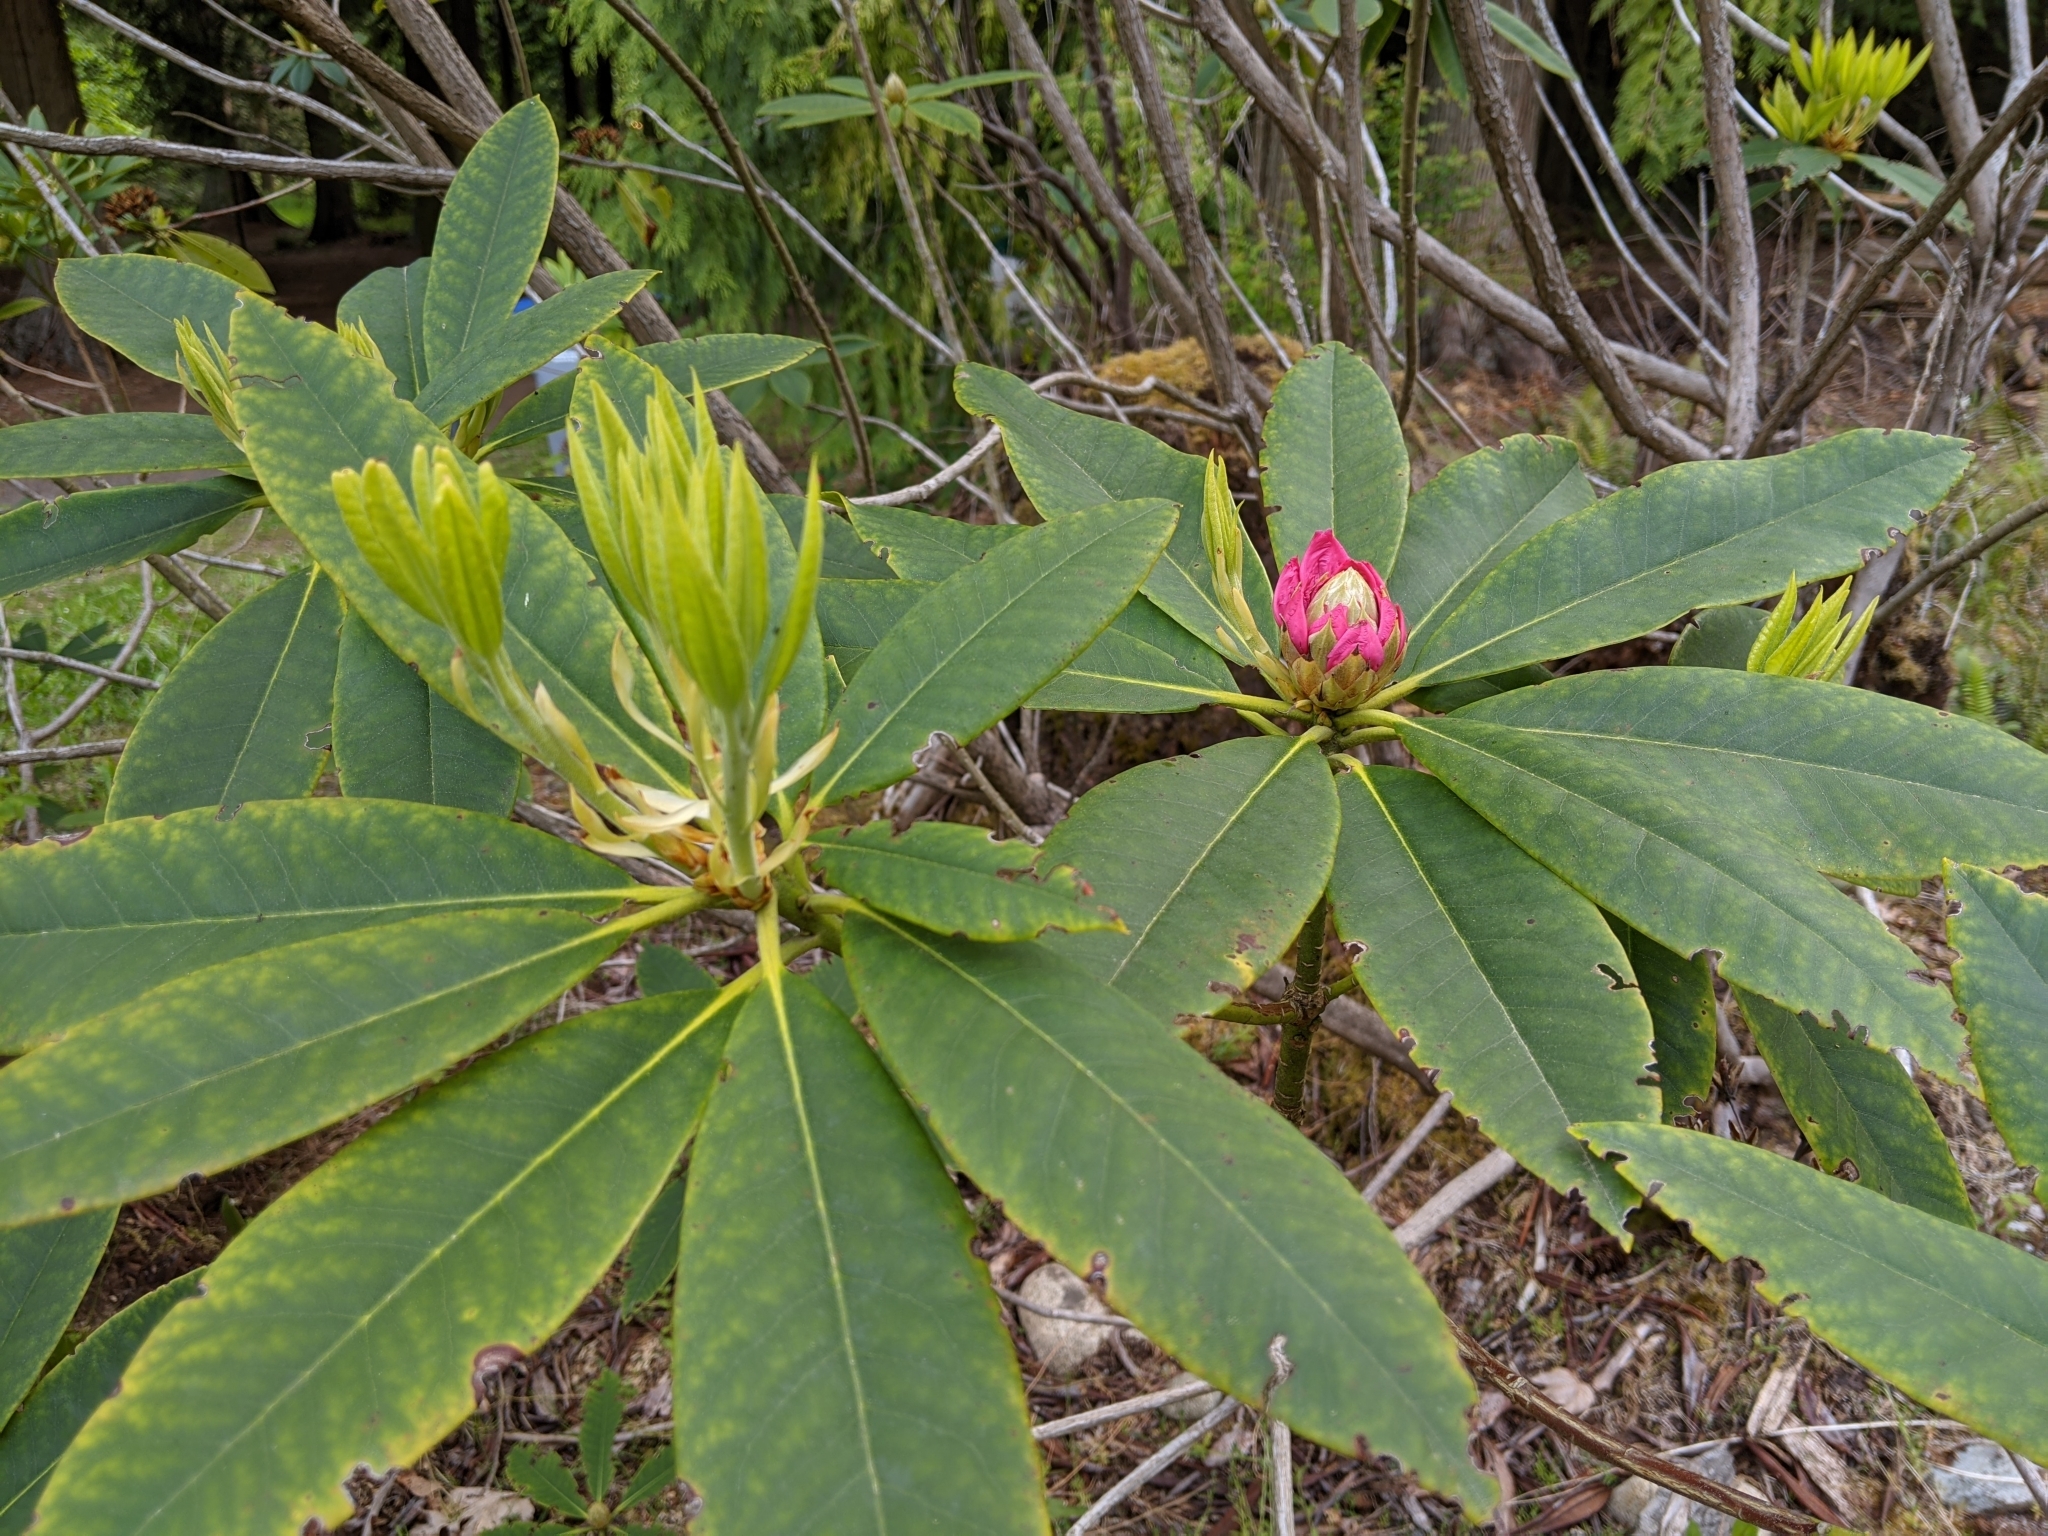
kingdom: Plantae
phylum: Tracheophyta
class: Magnoliopsida
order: Ericales
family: Ericaceae
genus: Rhododendron
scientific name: Rhododendron macrophyllum
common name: California rose bay
